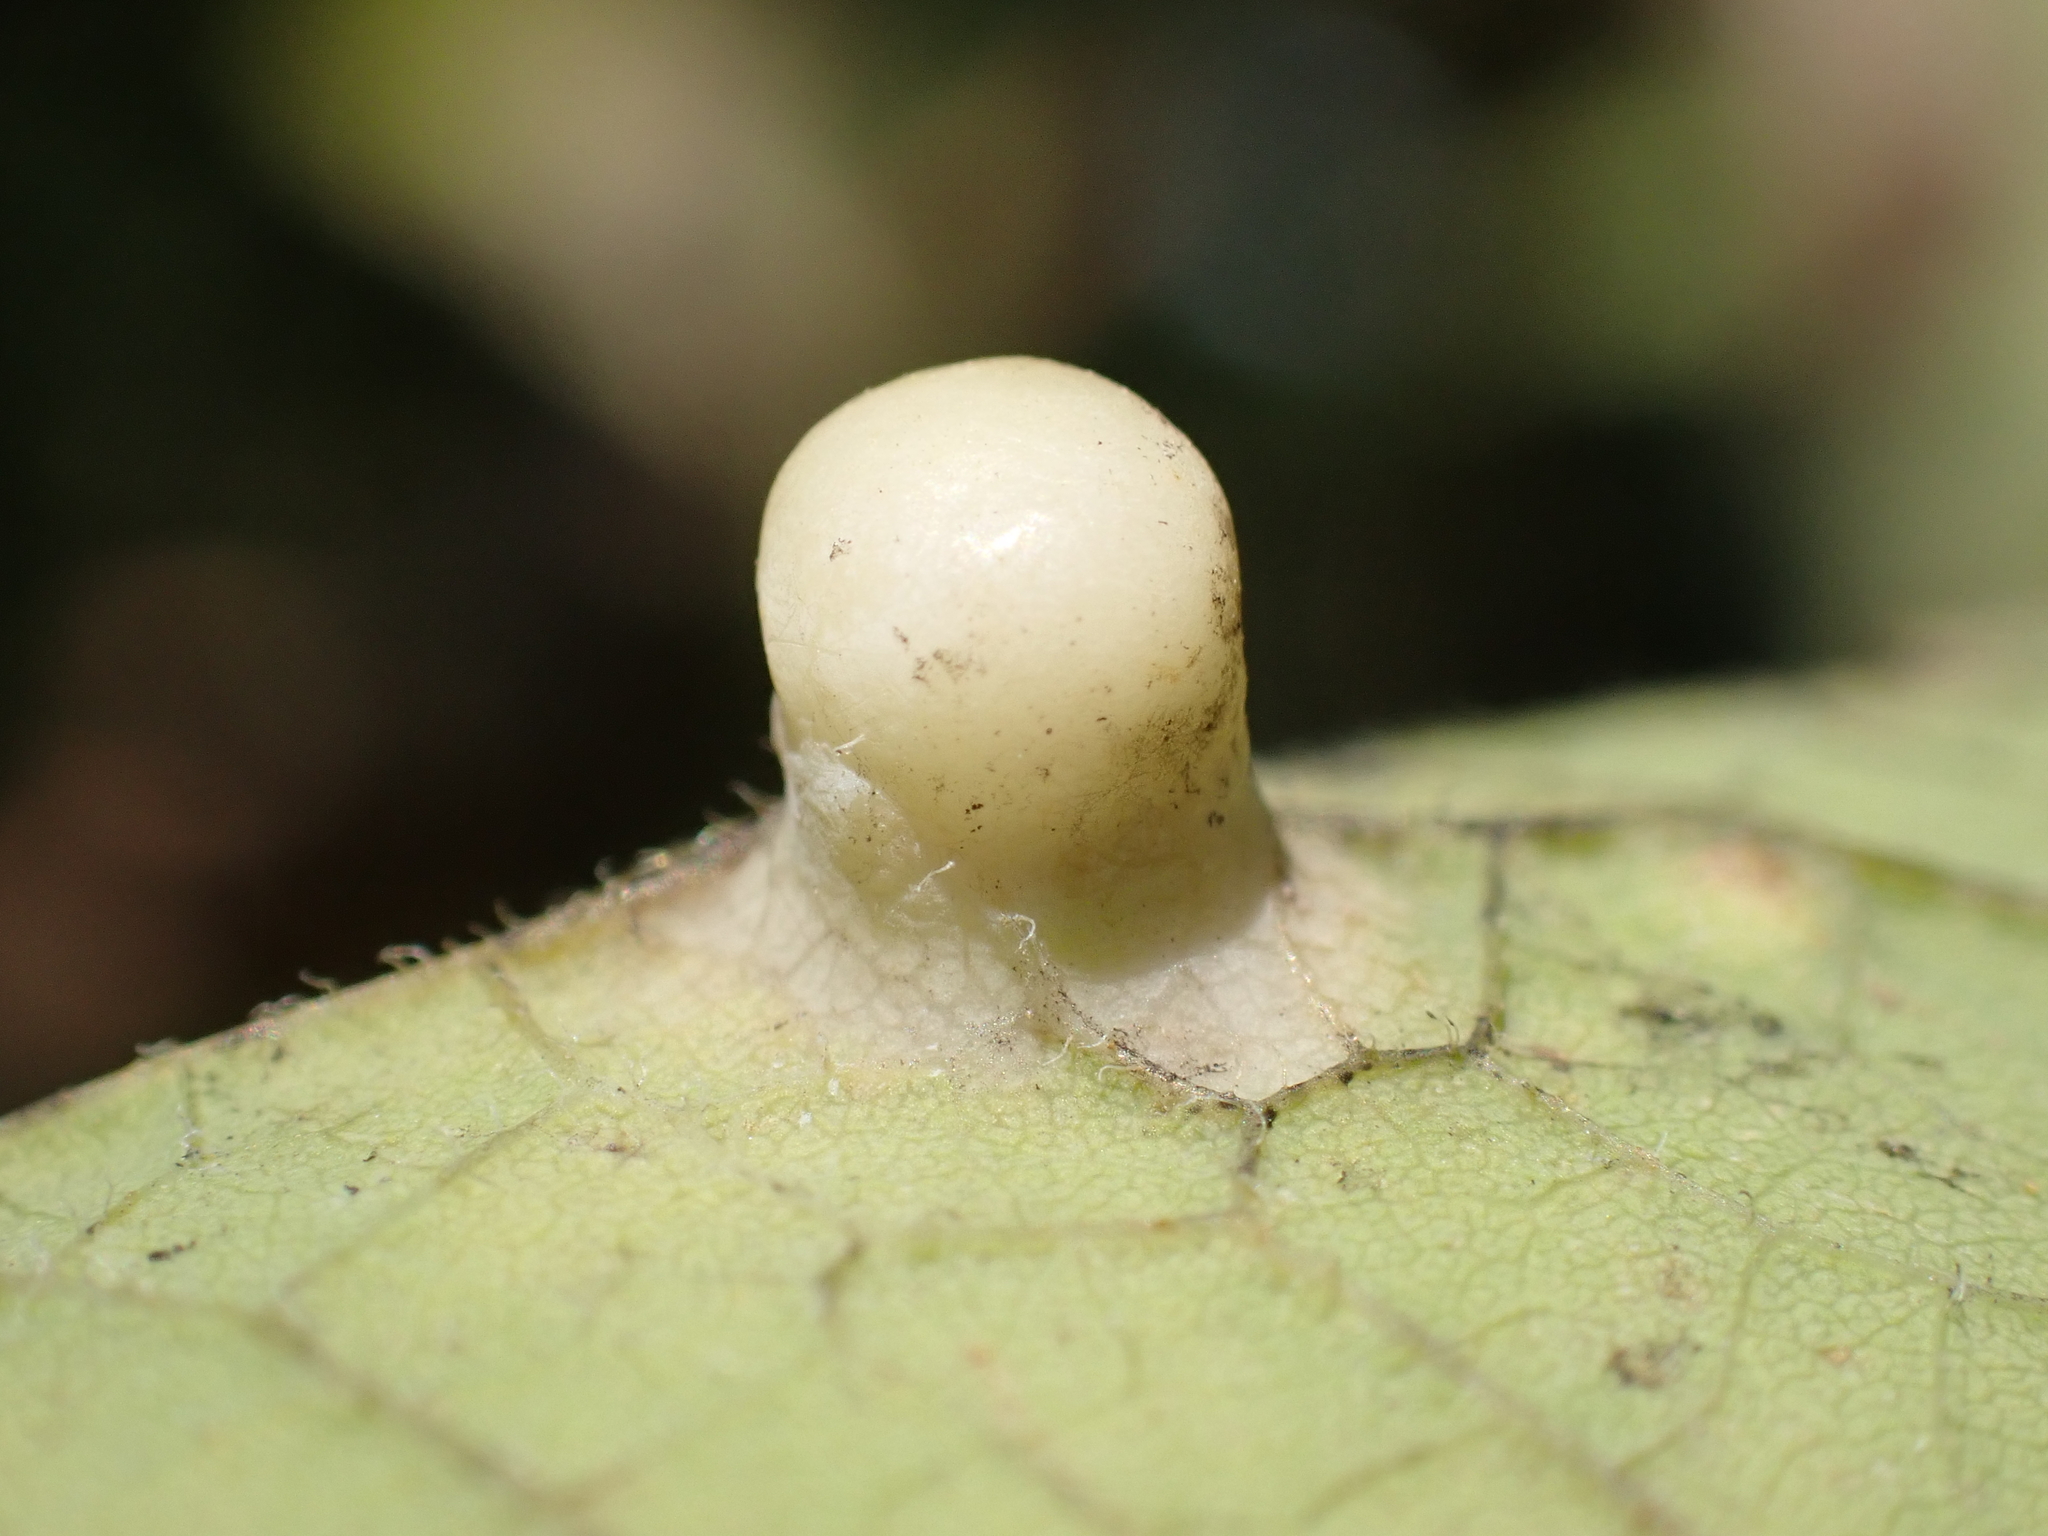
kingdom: Animalia
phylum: Arthropoda
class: Insecta
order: Hemiptera
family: Aphalaridae
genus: Pachypsylla
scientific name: Pachypsylla celtidismamma
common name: Hackberry nipplegall psyllid
